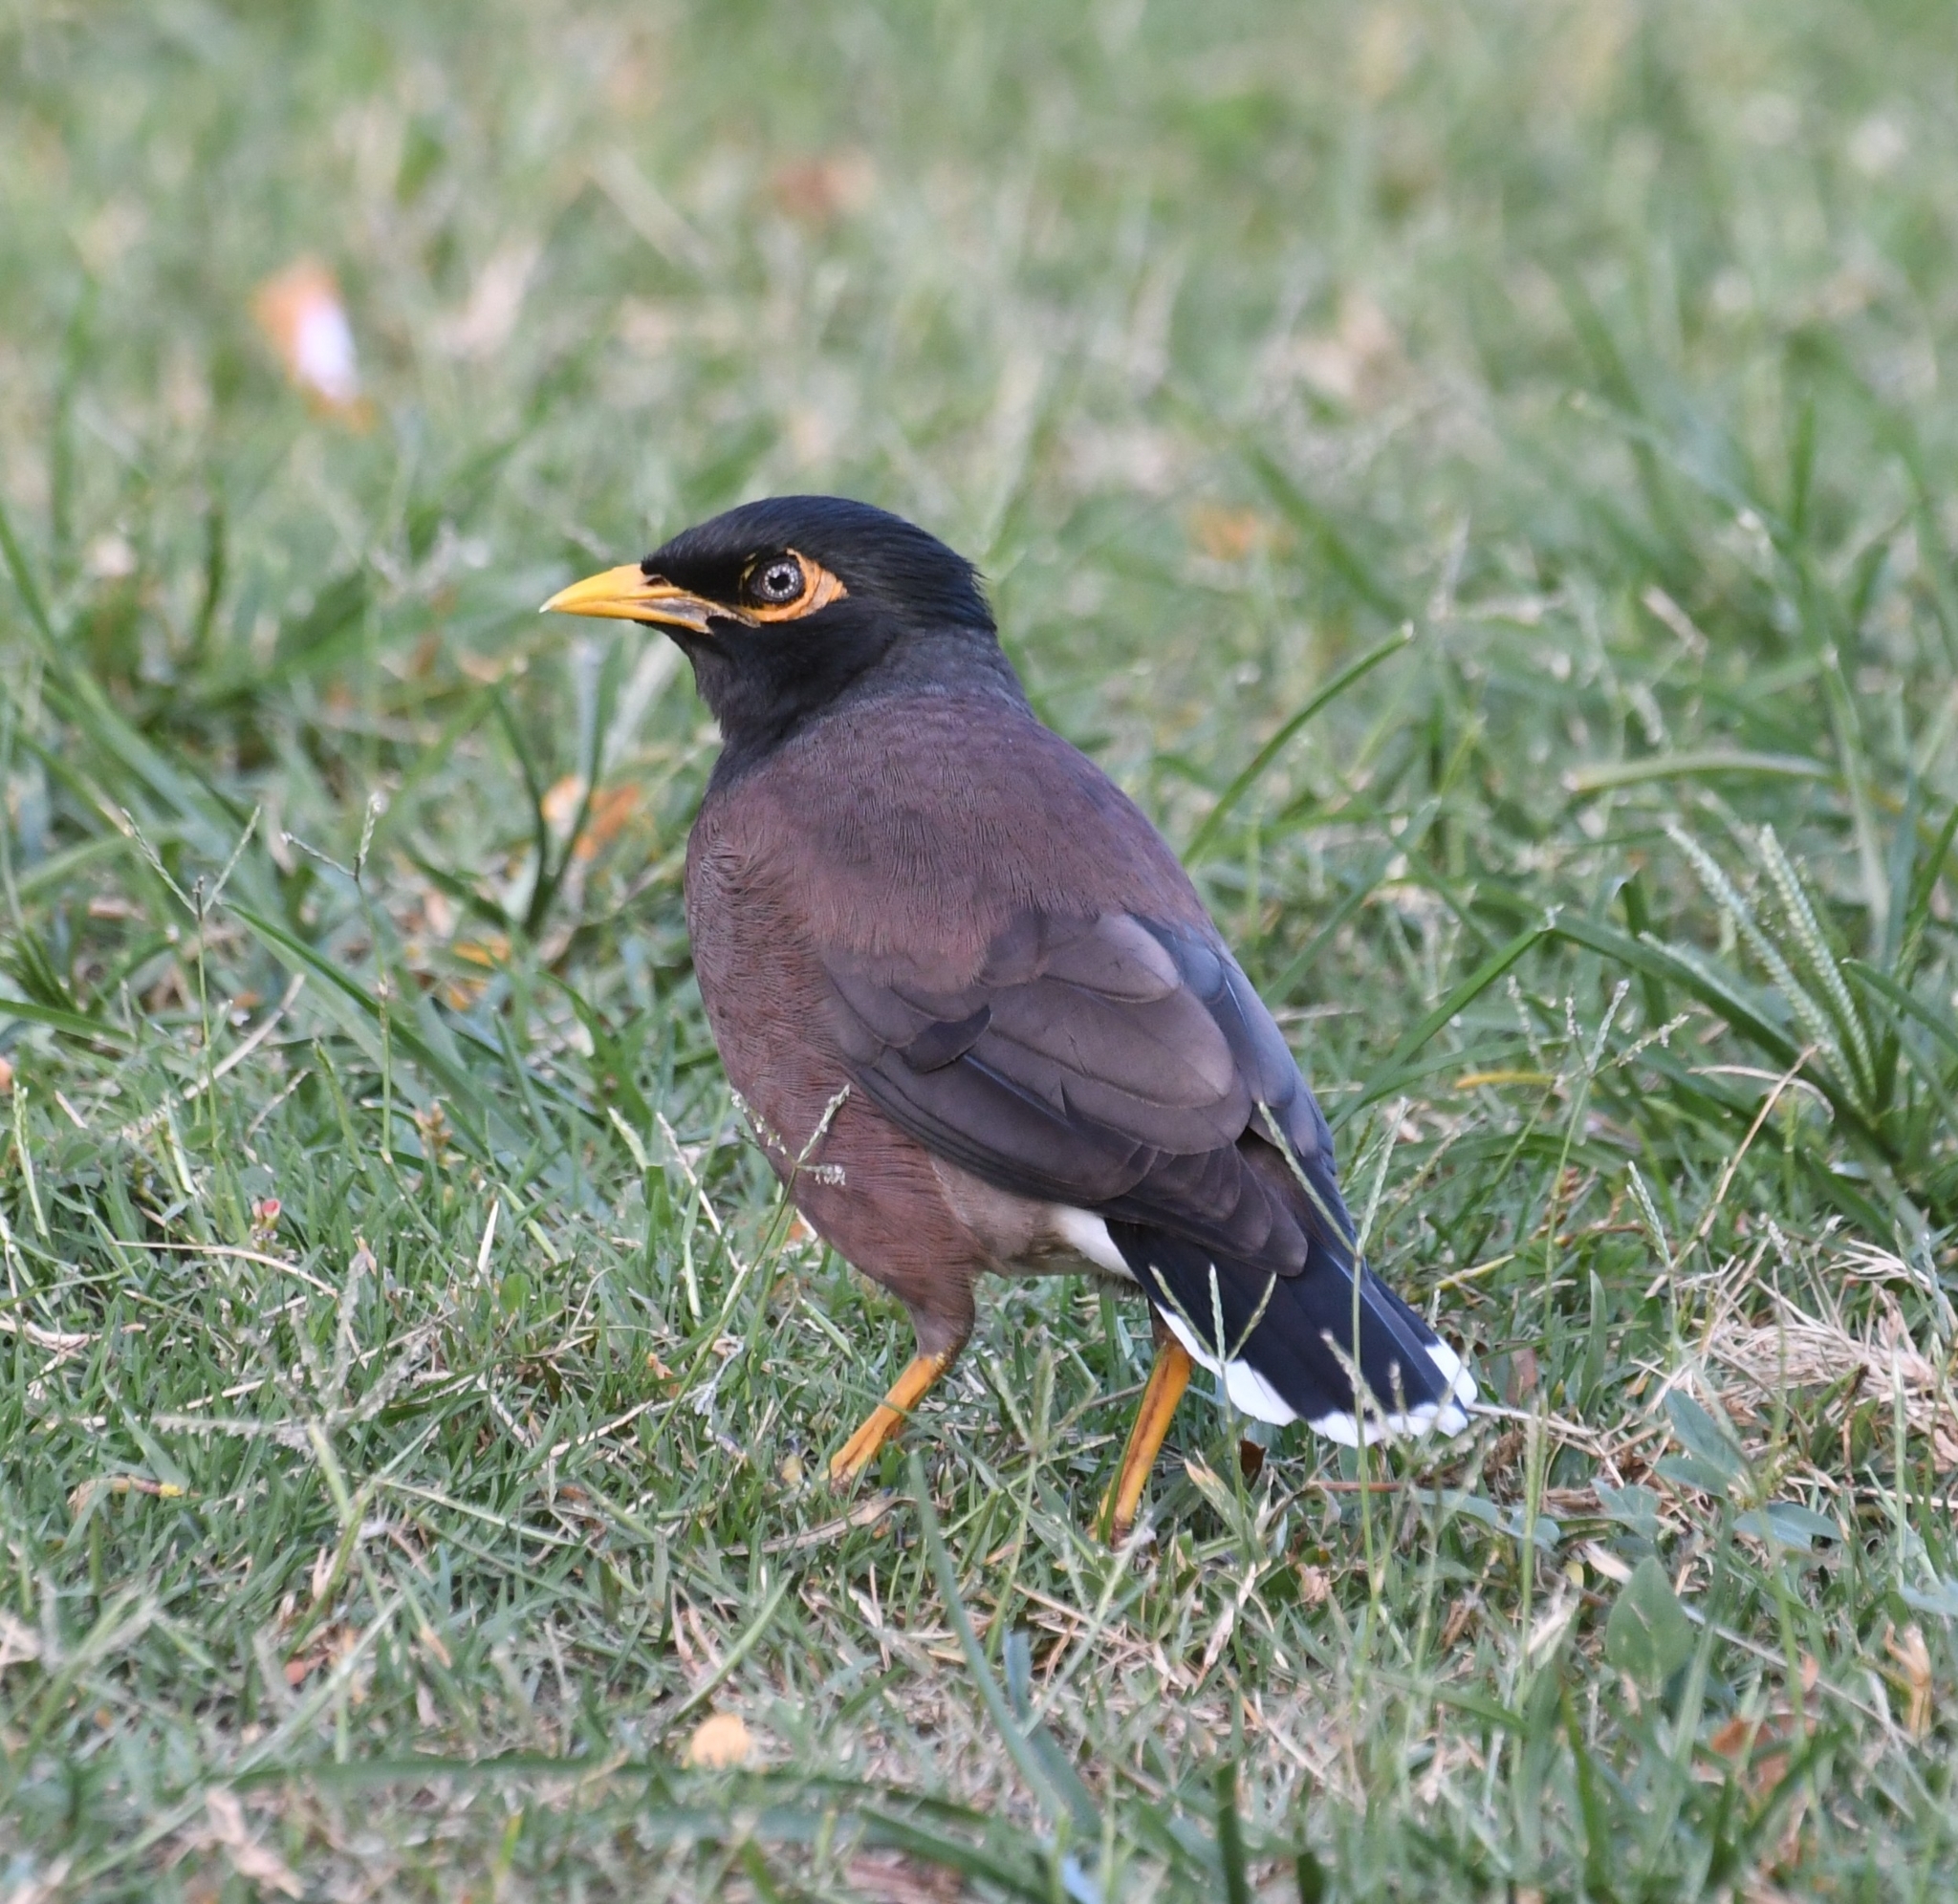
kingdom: Animalia
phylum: Chordata
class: Aves
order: Passeriformes
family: Sturnidae
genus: Acridotheres
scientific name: Acridotheres tristis
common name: Common myna
